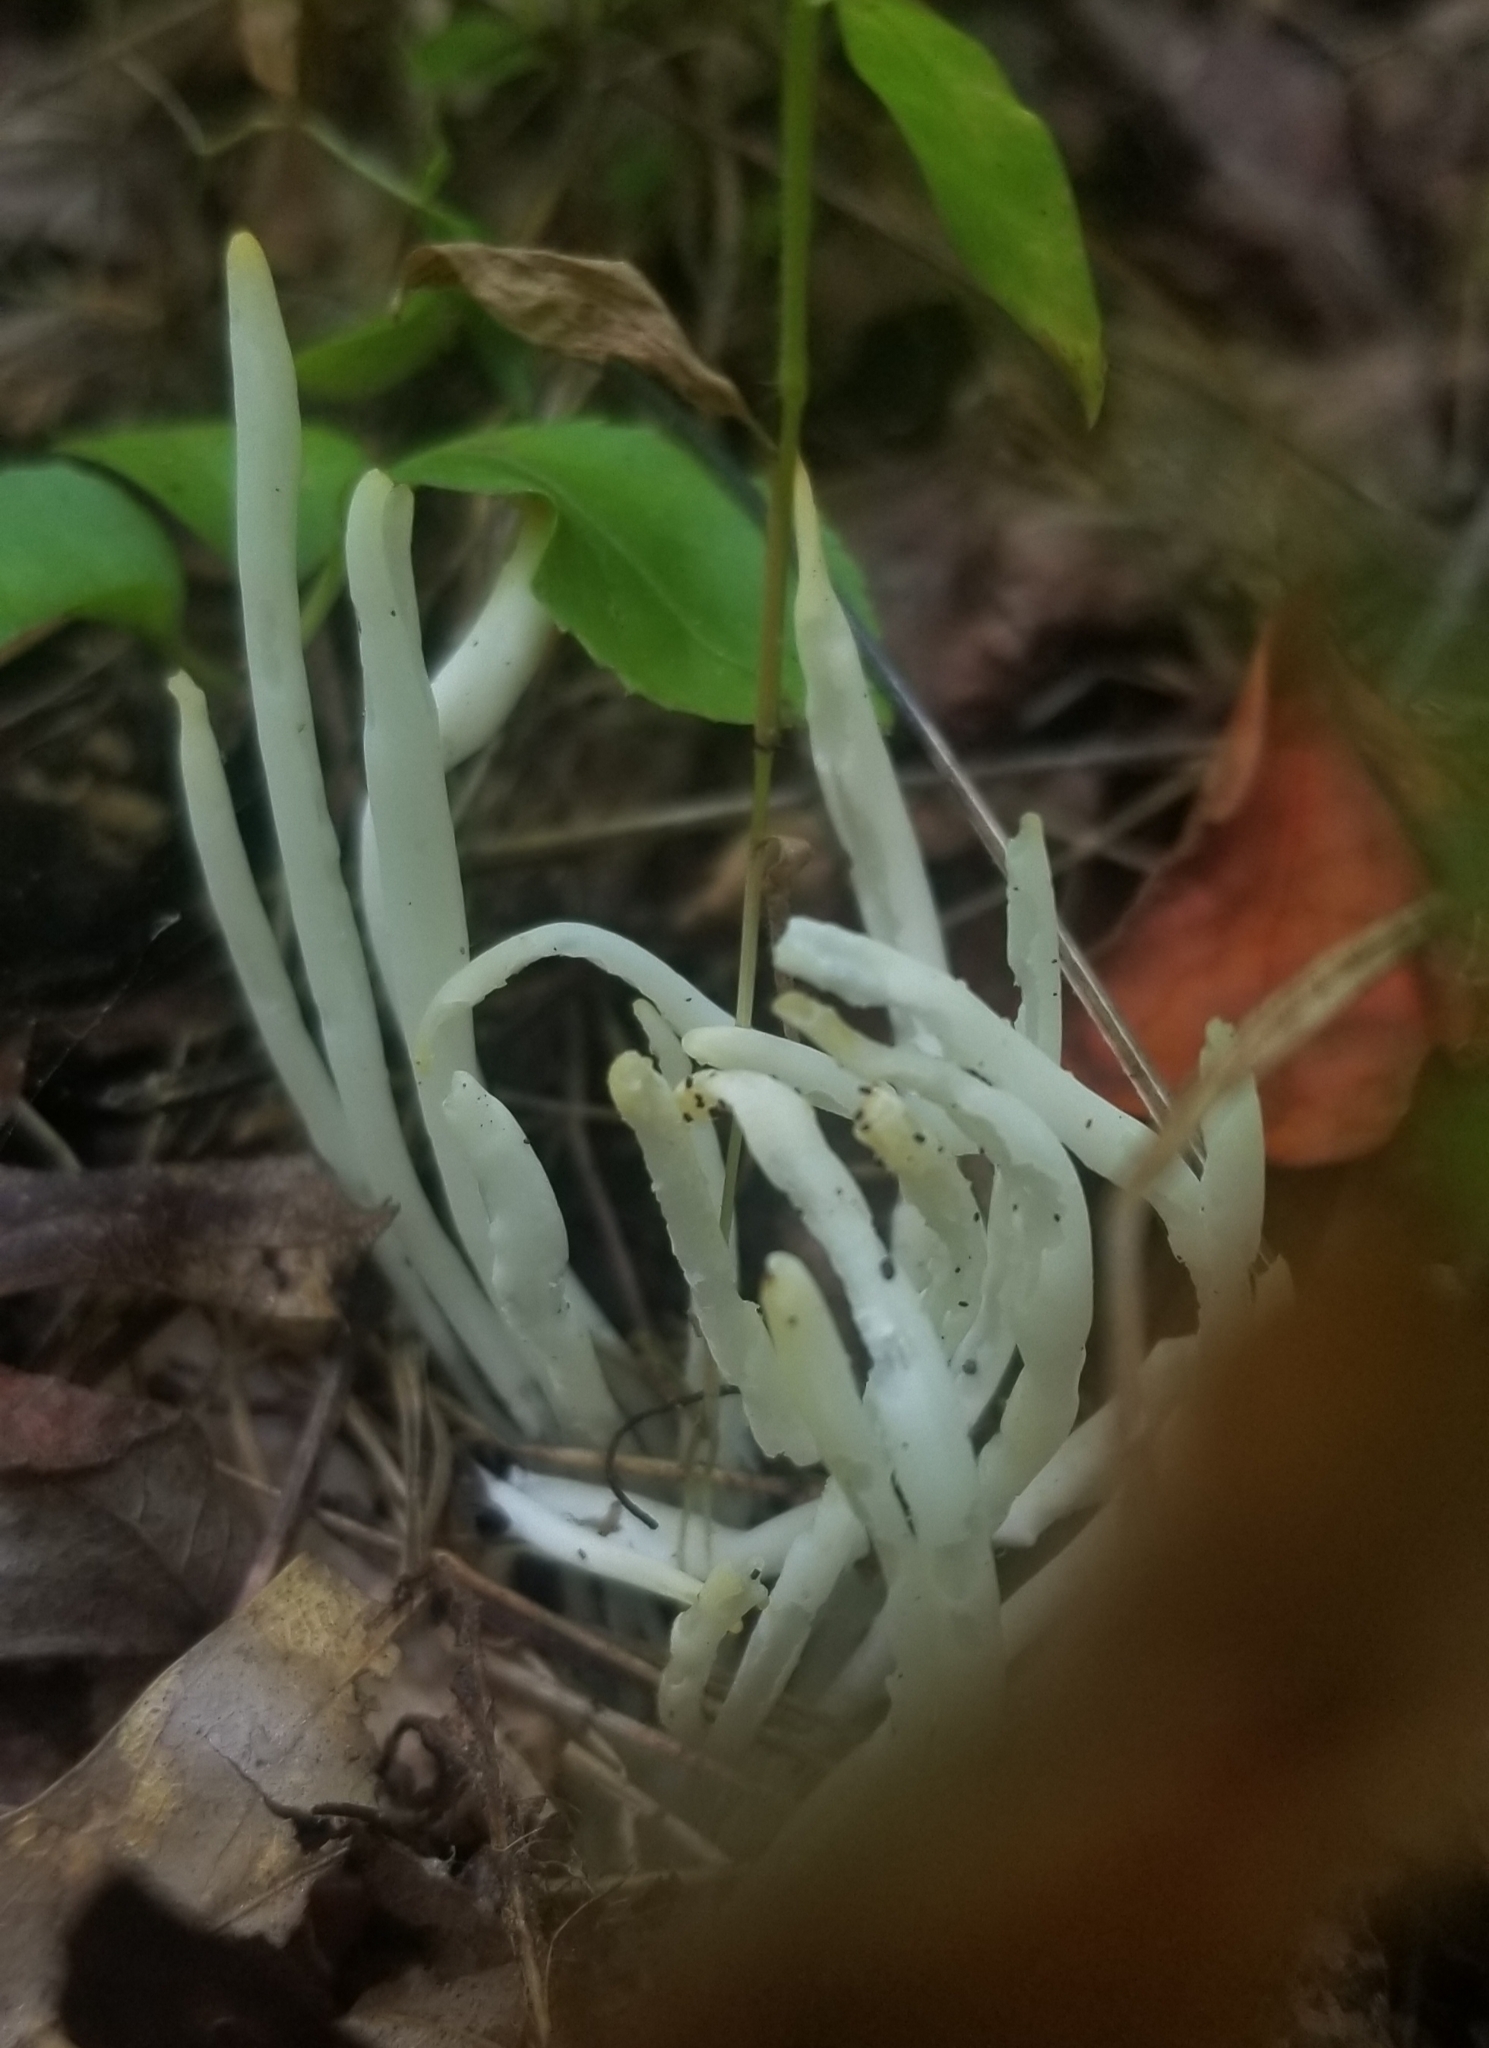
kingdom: Fungi
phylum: Basidiomycota
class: Agaricomycetes
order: Agaricales
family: Clavariaceae
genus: Clavaria
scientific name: Clavaria fragilis
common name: White spindles
